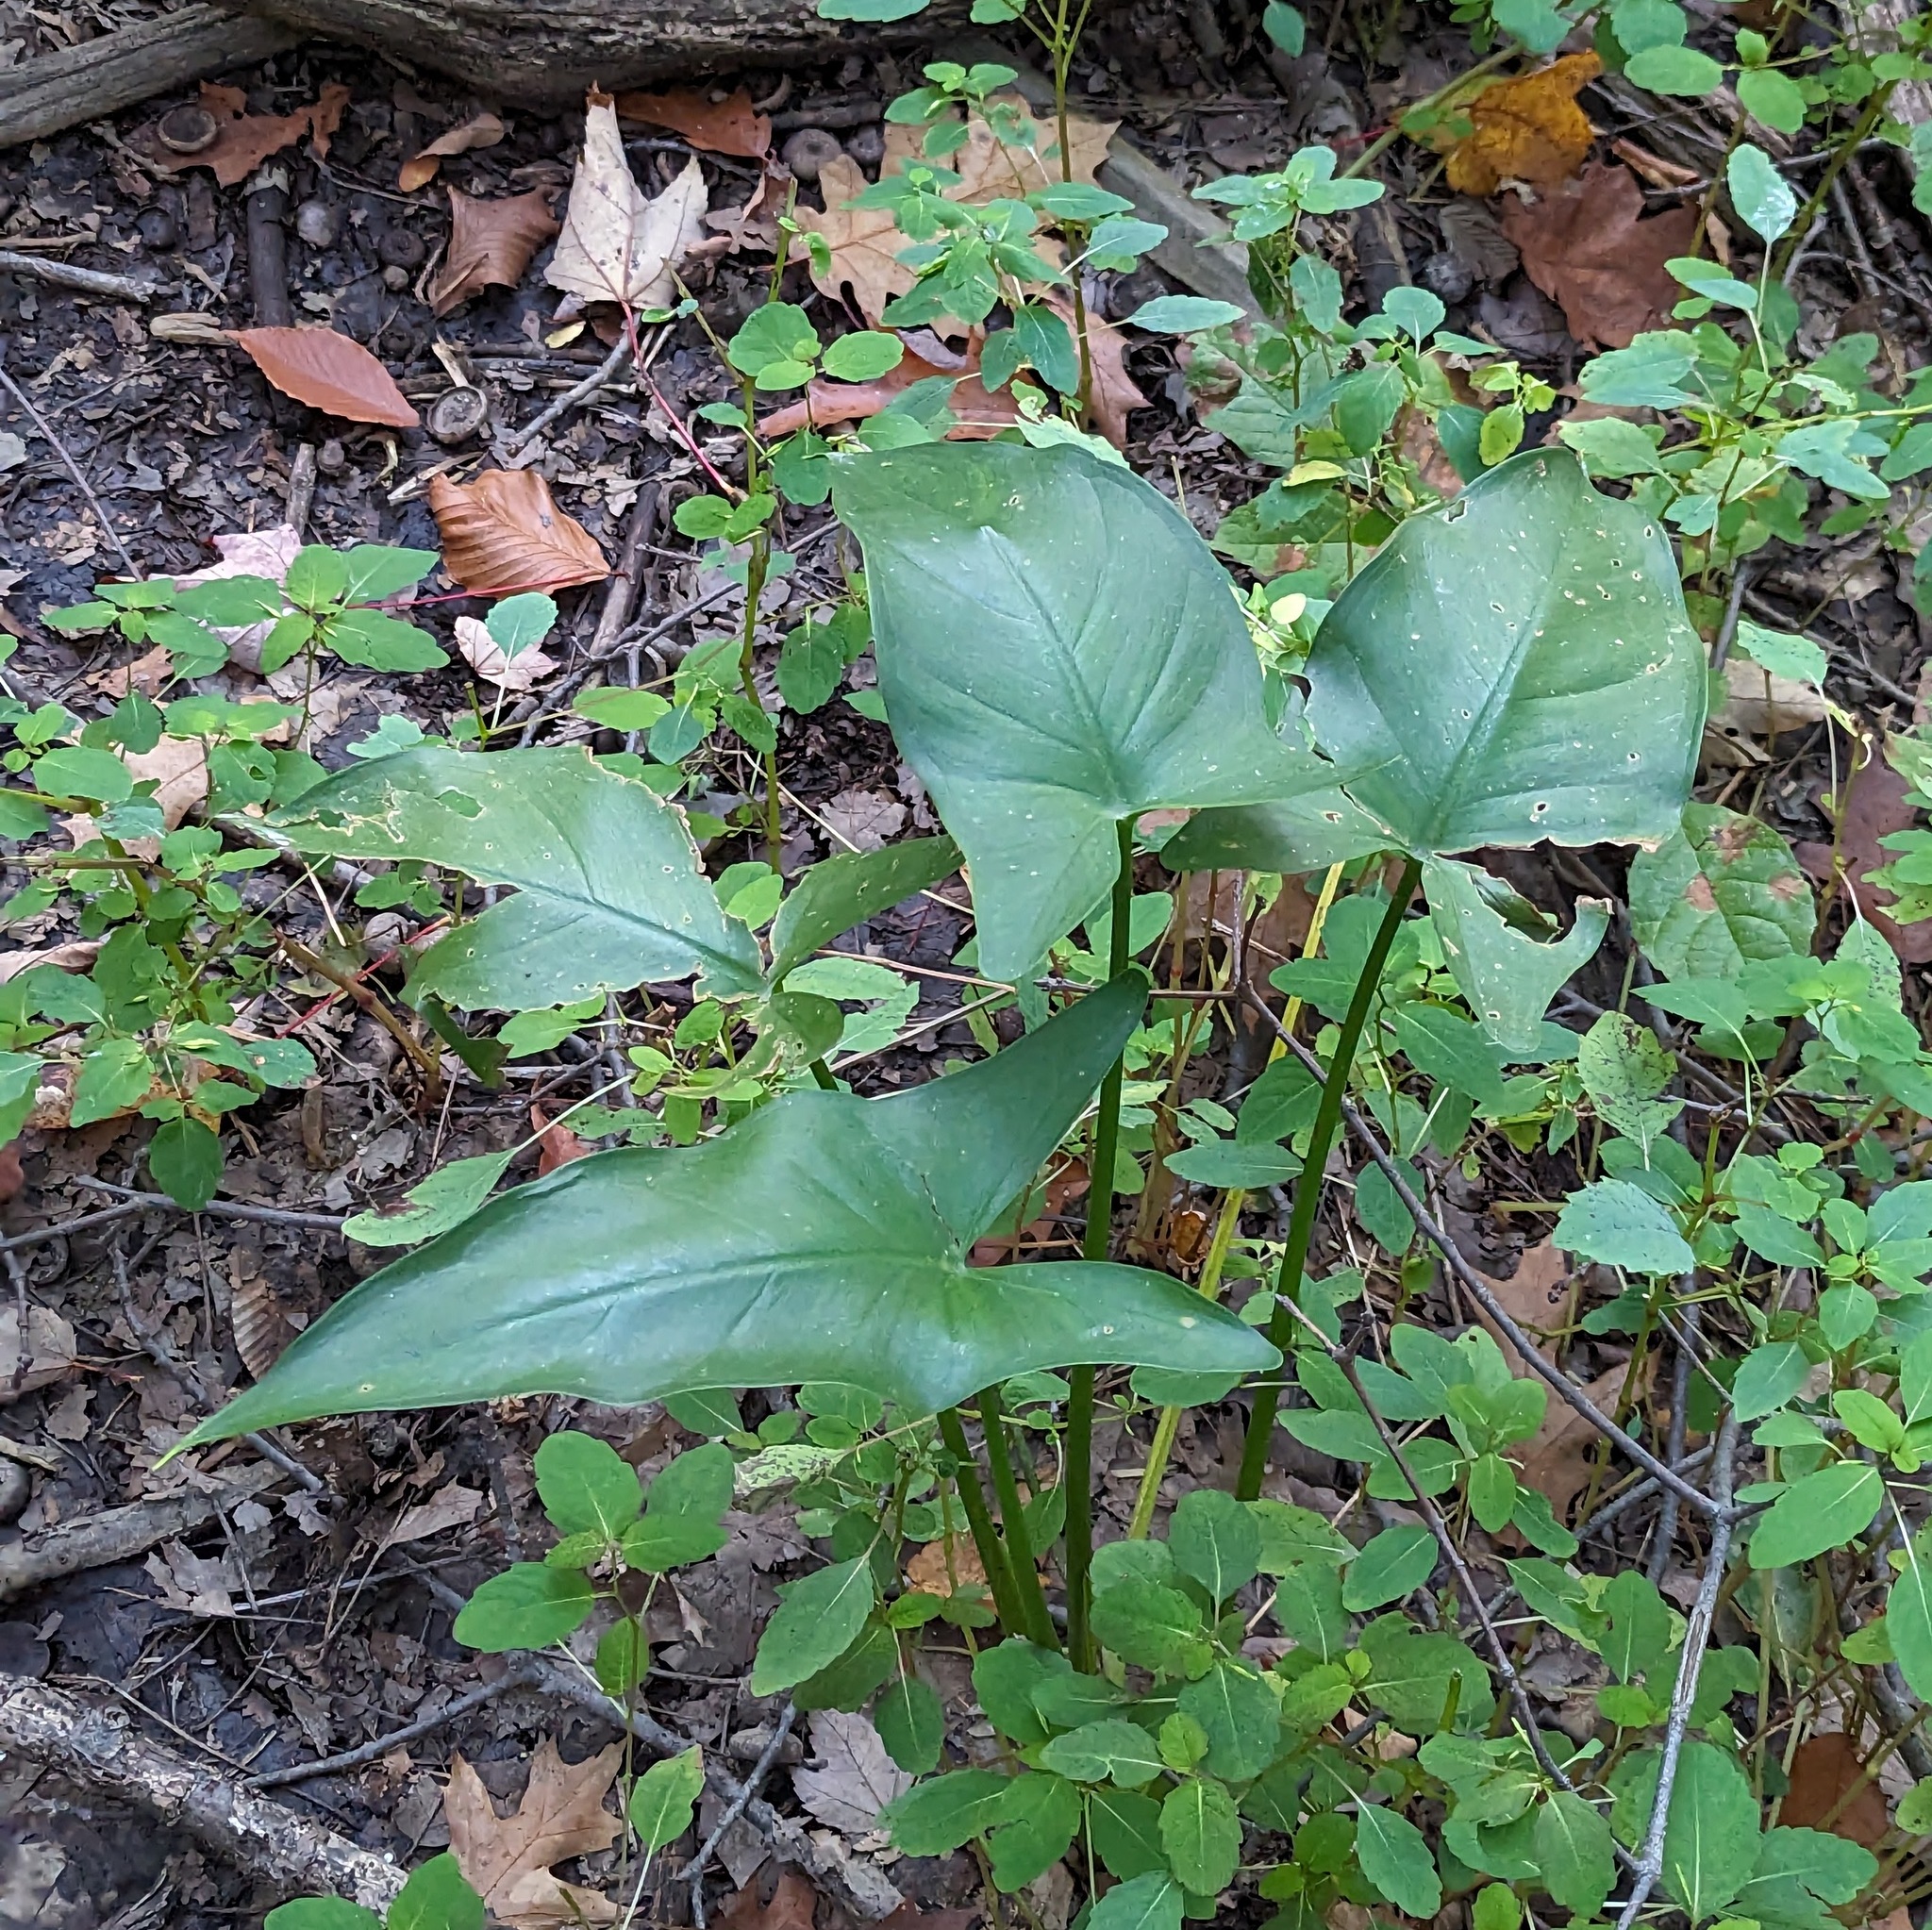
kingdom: Plantae
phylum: Tracheophyta
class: Liliopsida
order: Alismatales
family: Araceae
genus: Peltandra
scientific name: Peltandra virginica
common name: Arrow arum
